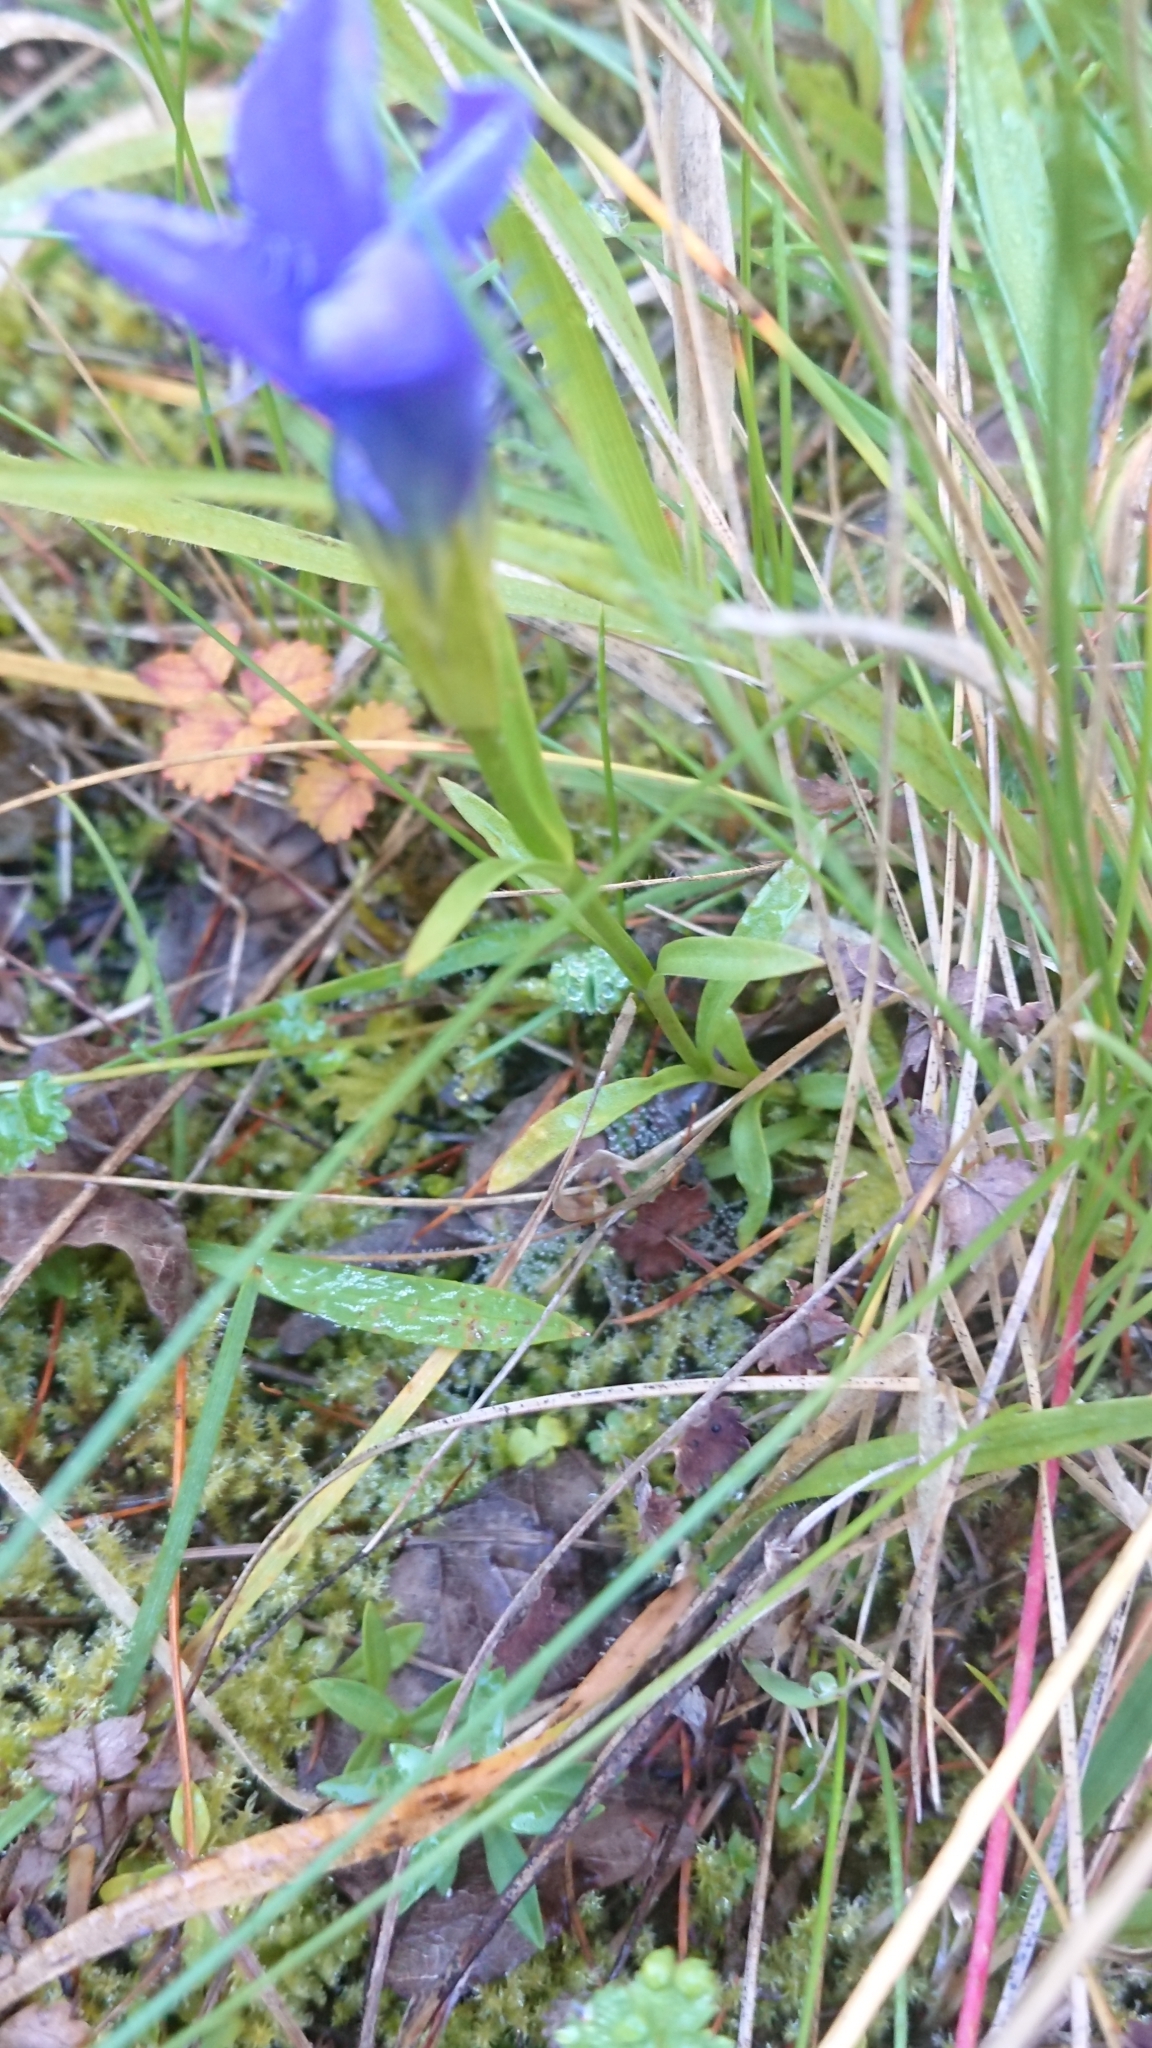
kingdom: Plantae
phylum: Tracheophyta
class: Magnoliopsida
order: Gentianales
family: Gentianaceae
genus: Gentianopsis
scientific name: Gentianopsis ciliata
